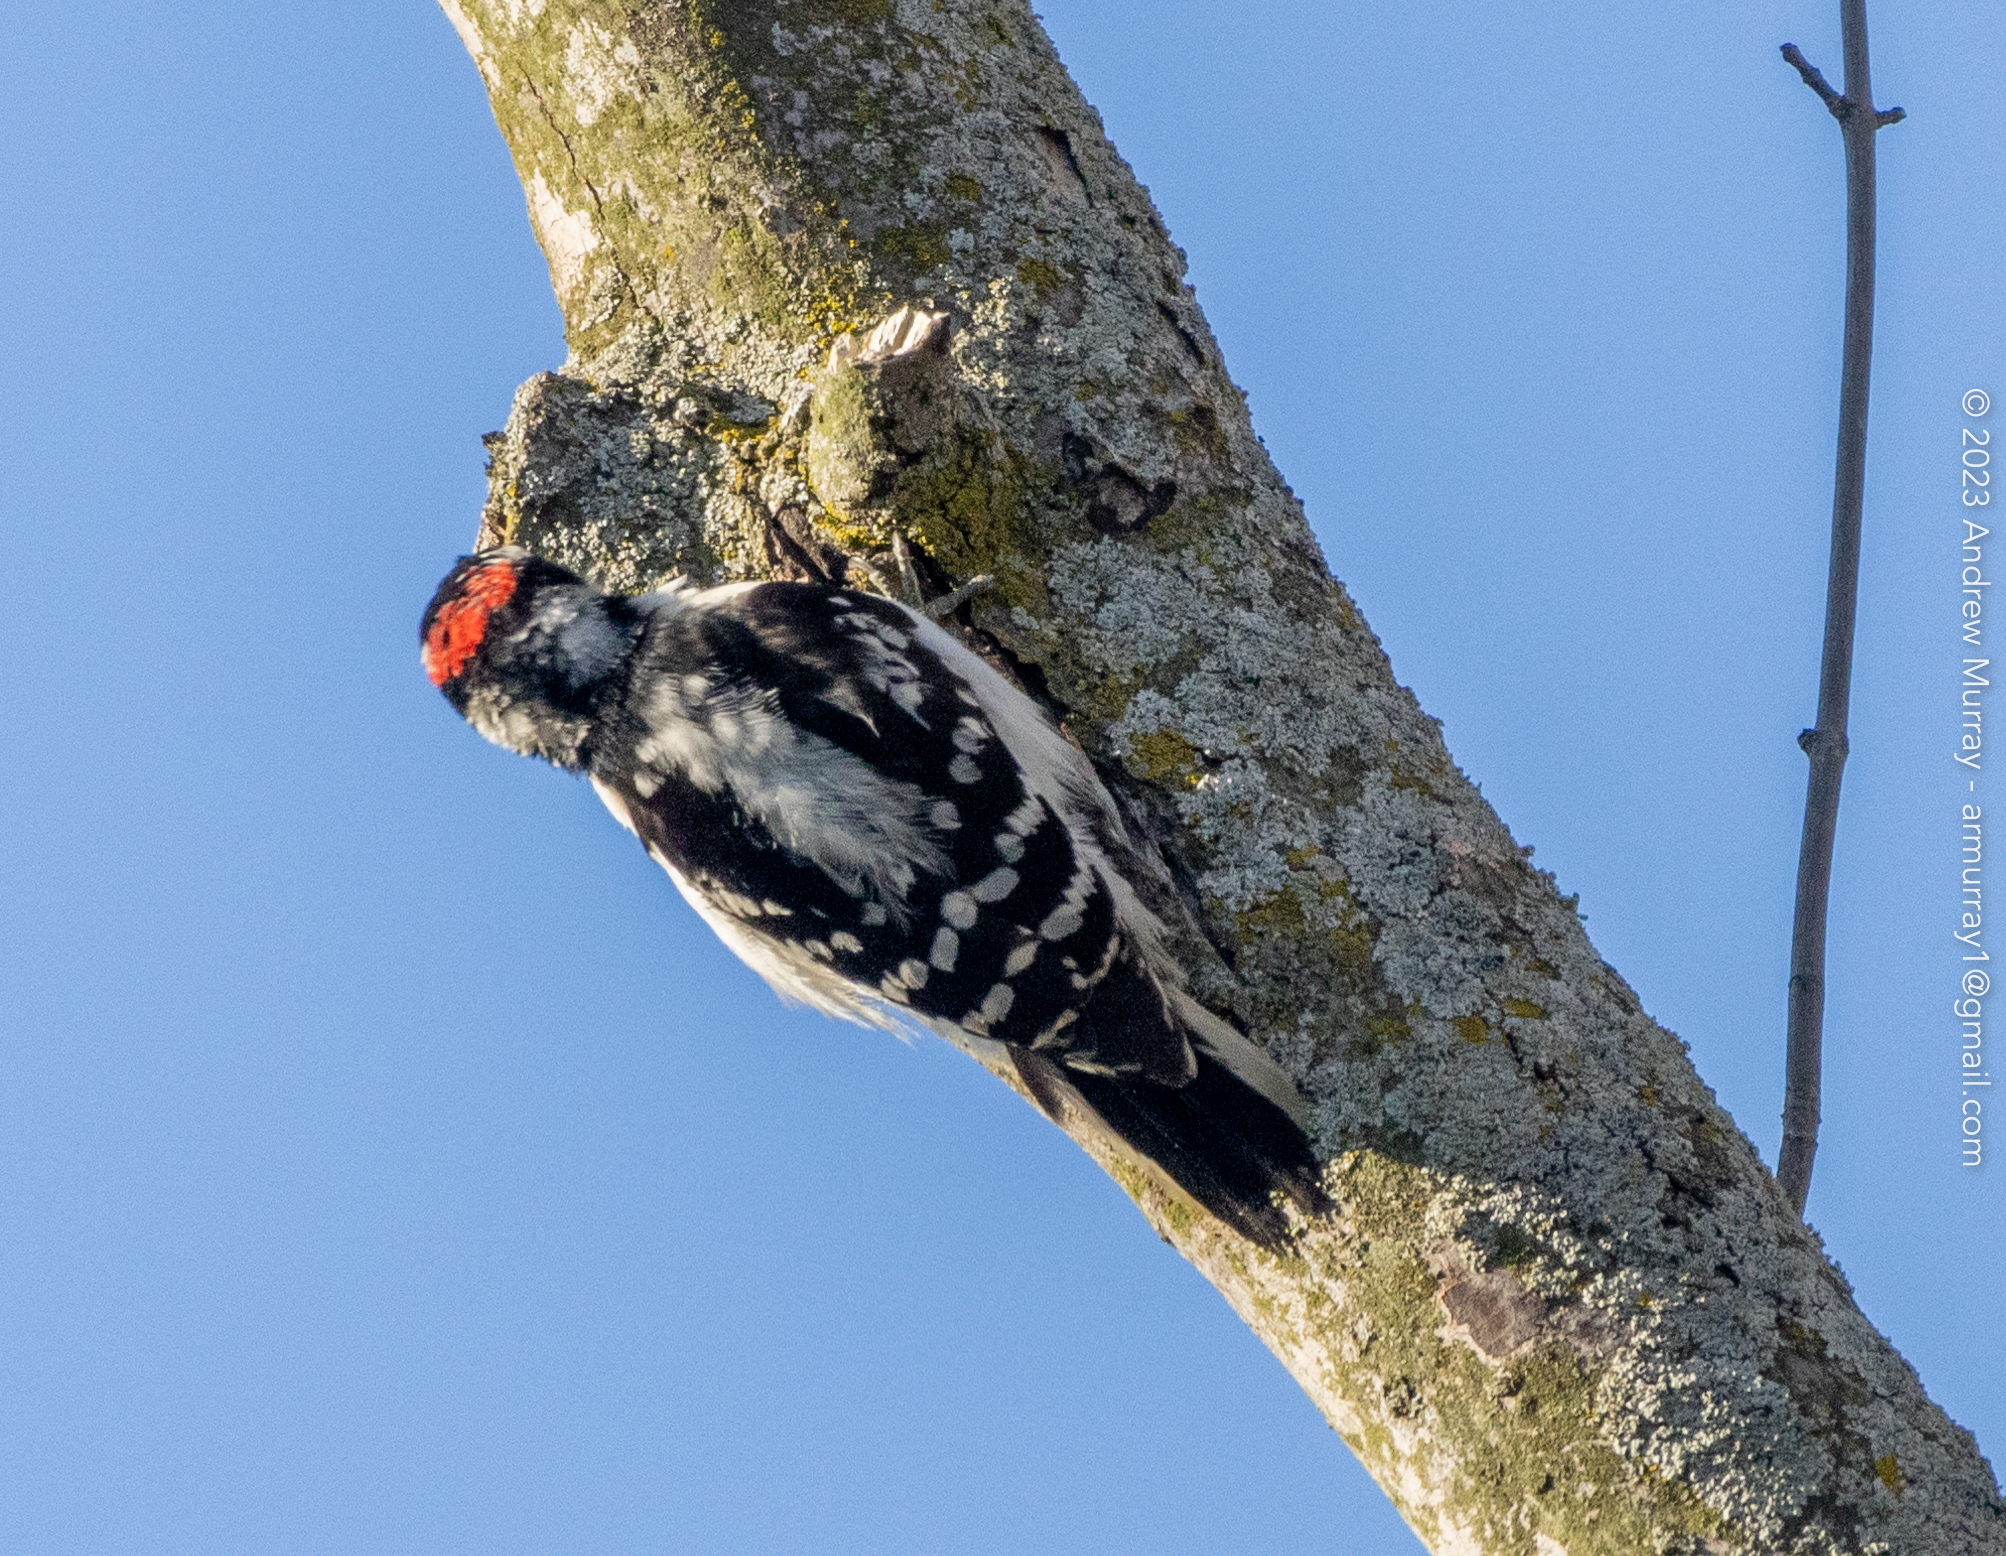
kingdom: Animalia
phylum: Chordata
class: Aves
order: Piciformes
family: Picidae
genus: Dryobates
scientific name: Dryobates pubescens
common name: Downy woodpecker
